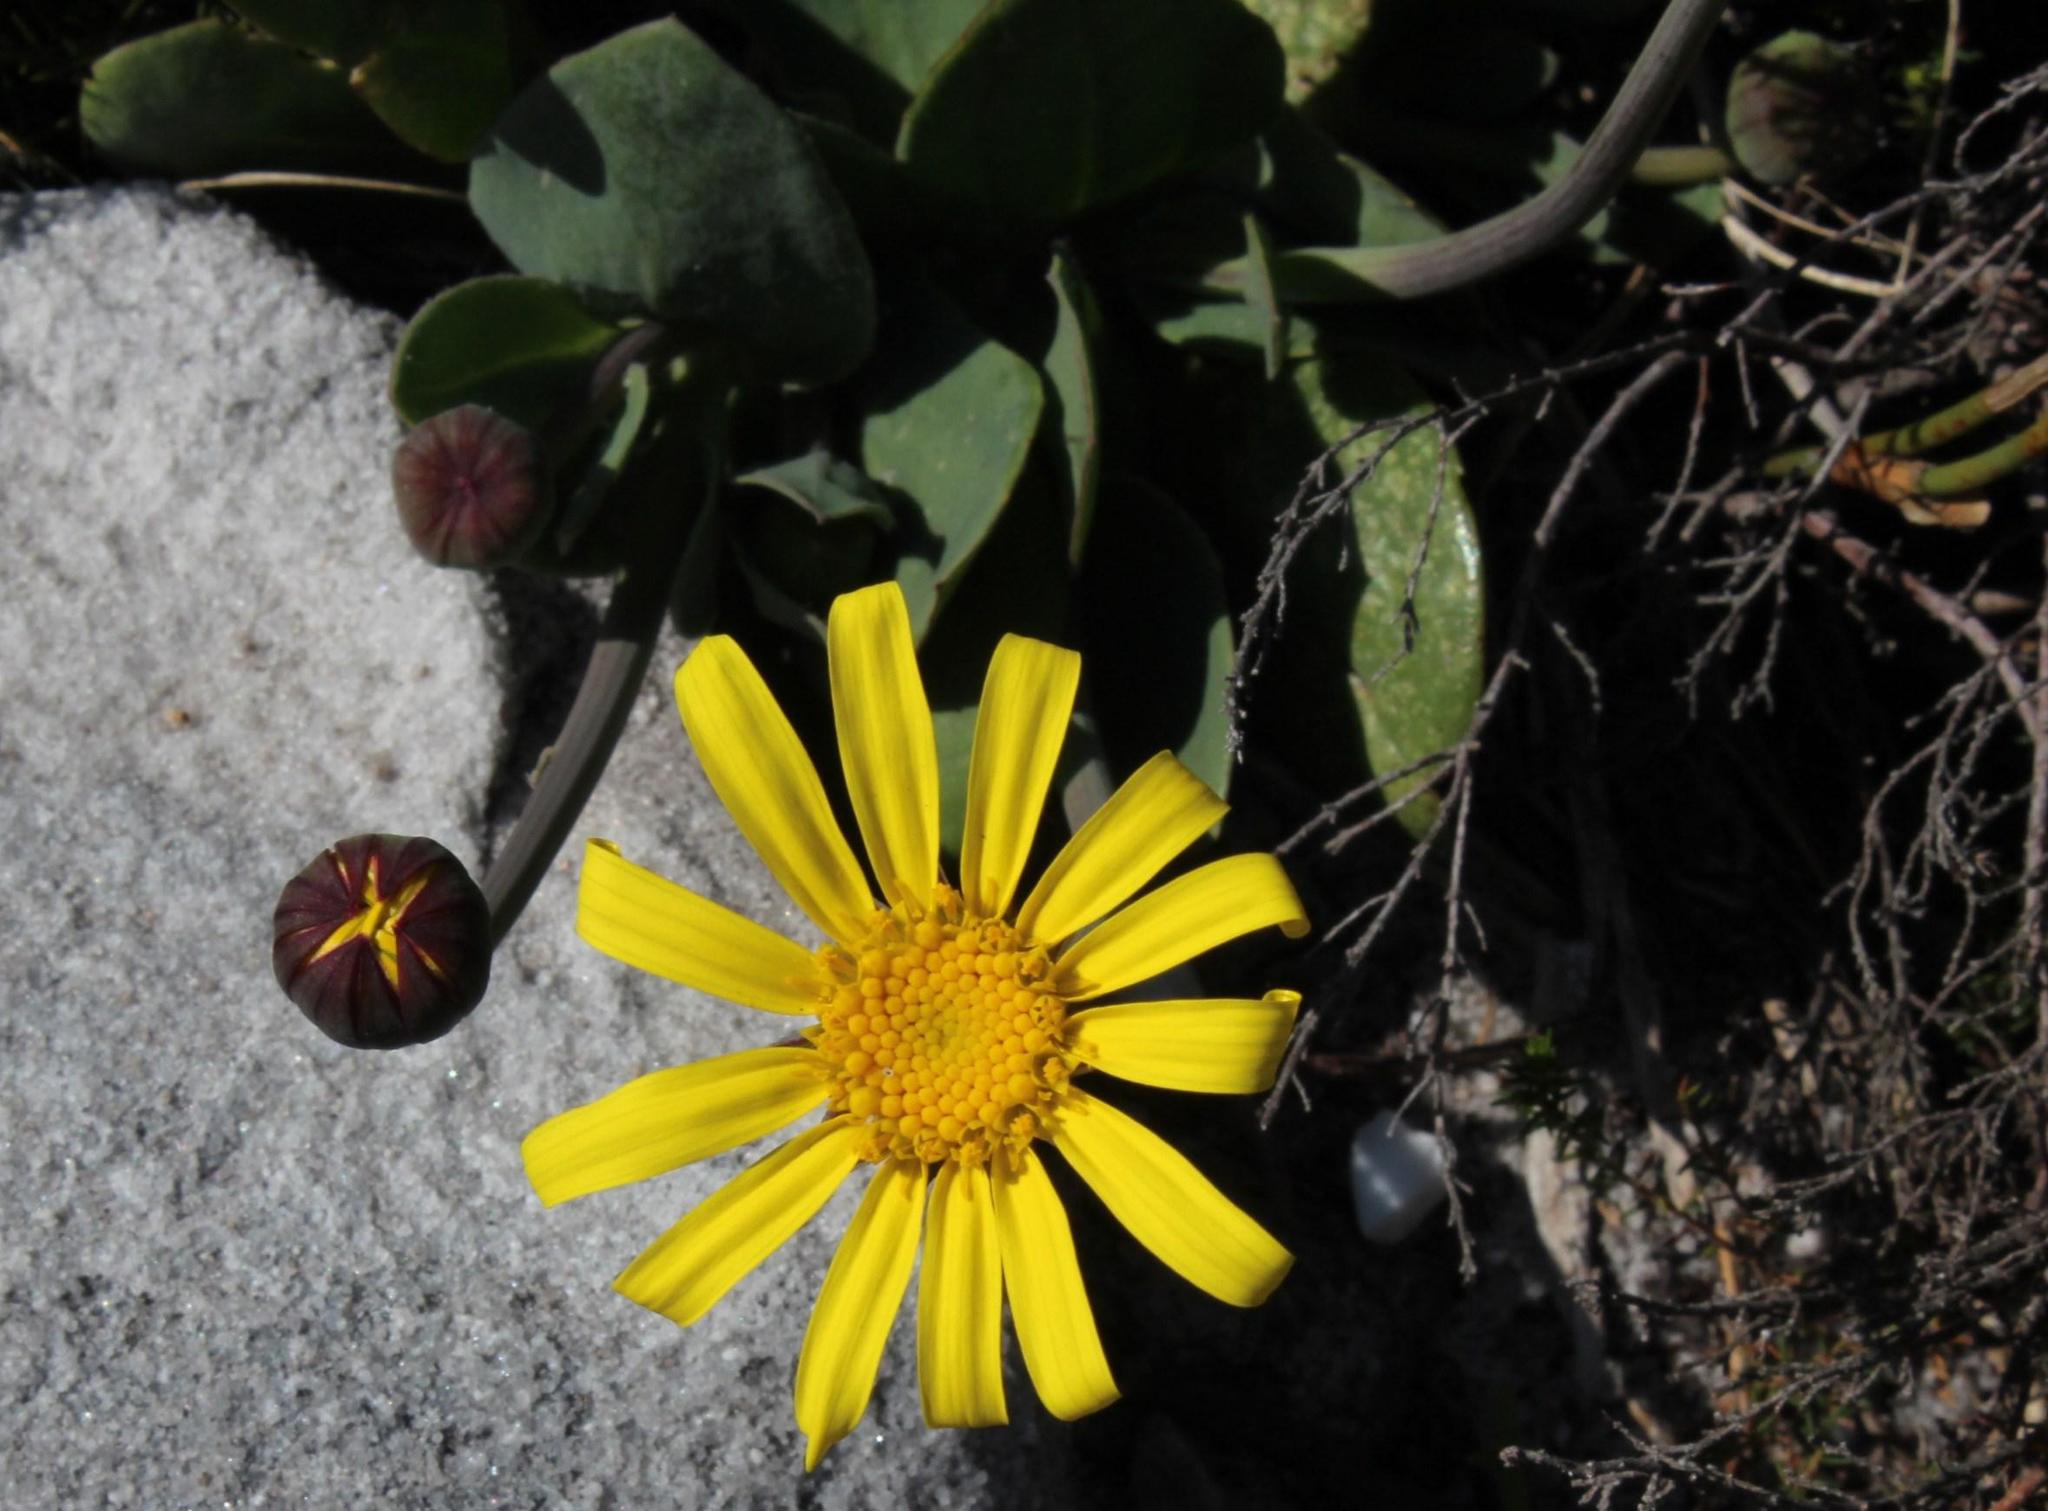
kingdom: Plantae
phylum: Tracheophyta
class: Magnoliopsida
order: Asterales
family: Asteraceae
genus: Othonna
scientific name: Othonna bulbosa
